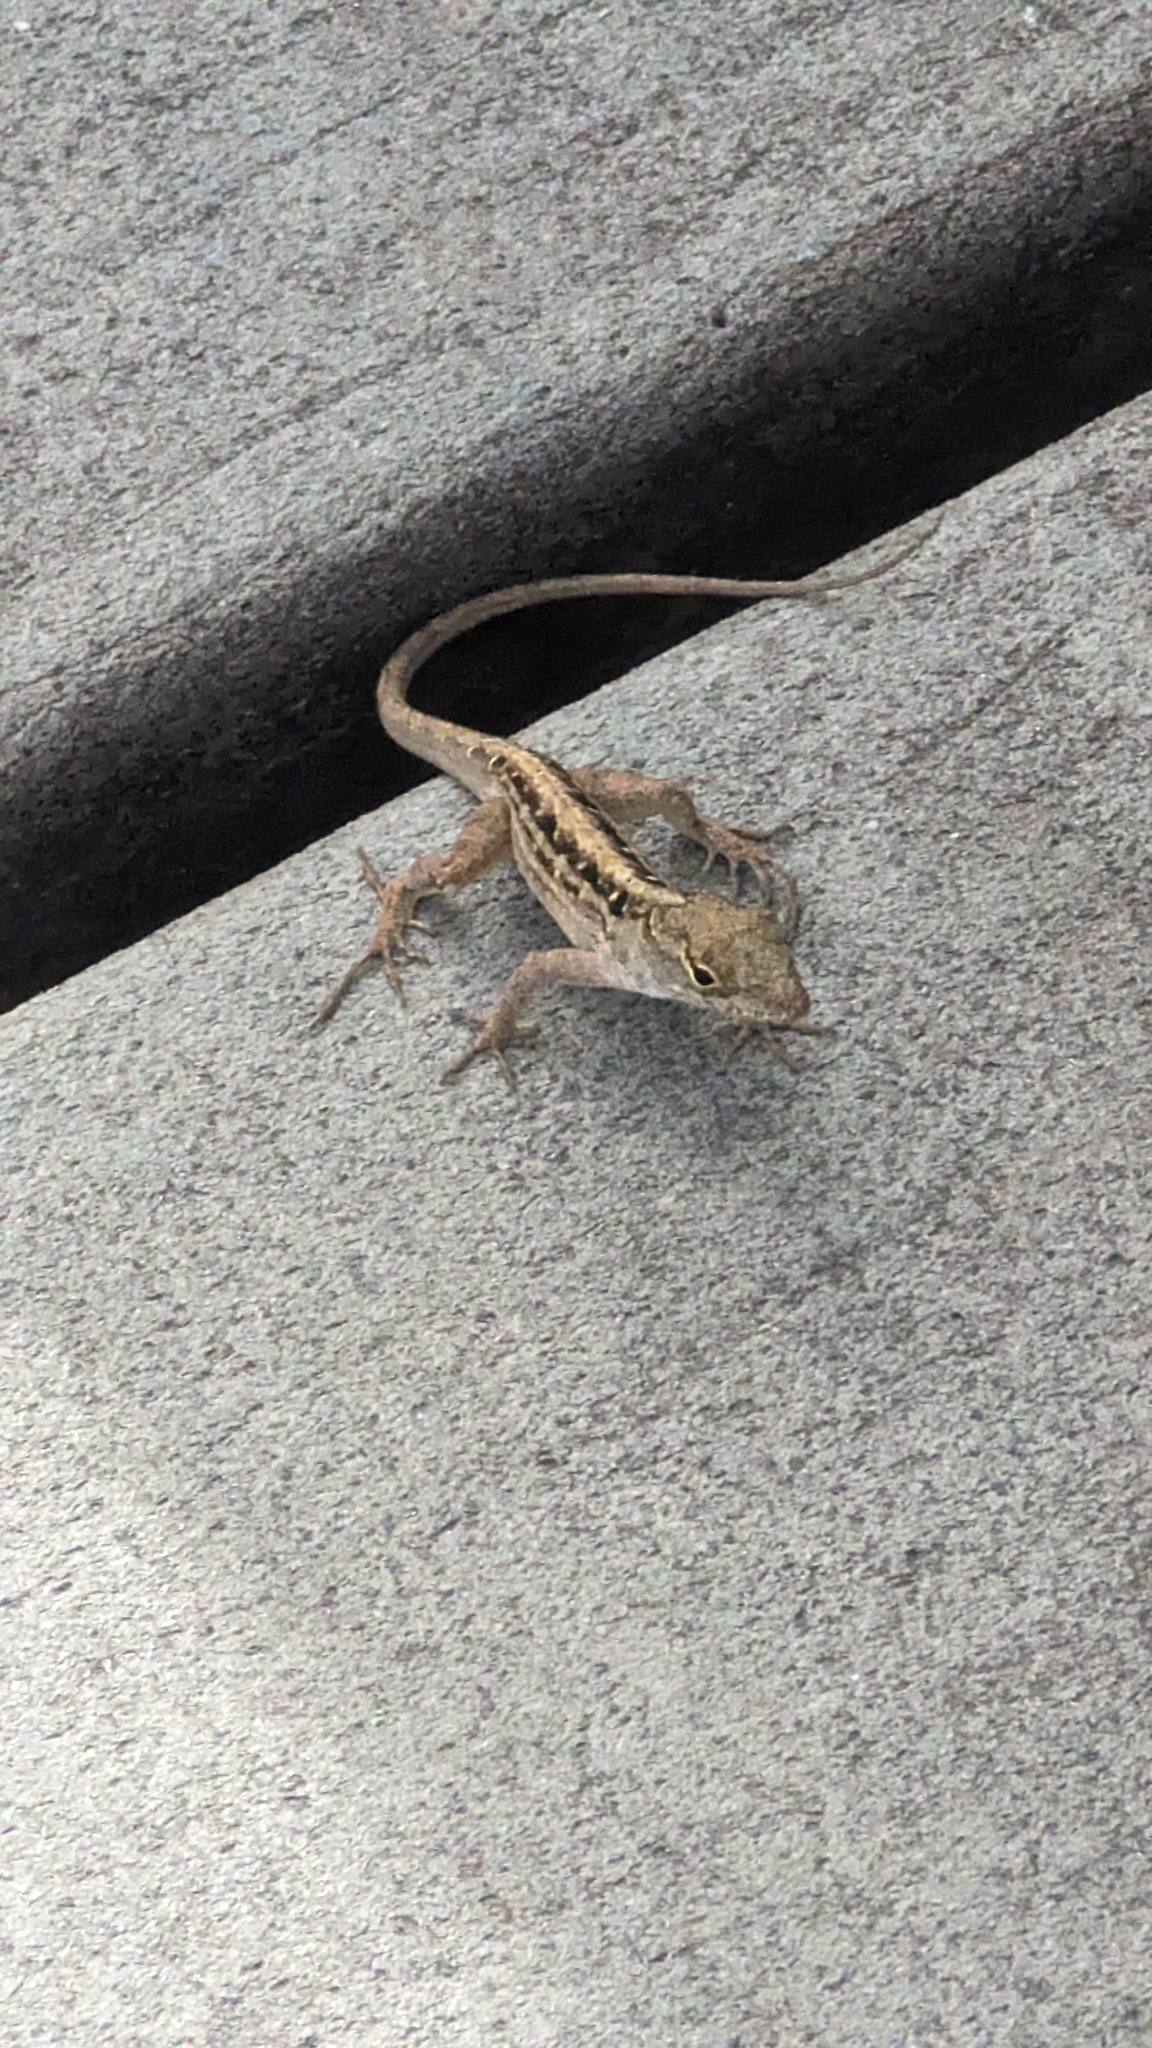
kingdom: Animalia
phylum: Chordata
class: Squamata
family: Dactyloidae
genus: Anolis
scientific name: Anolis sagrei
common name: Brown anole
